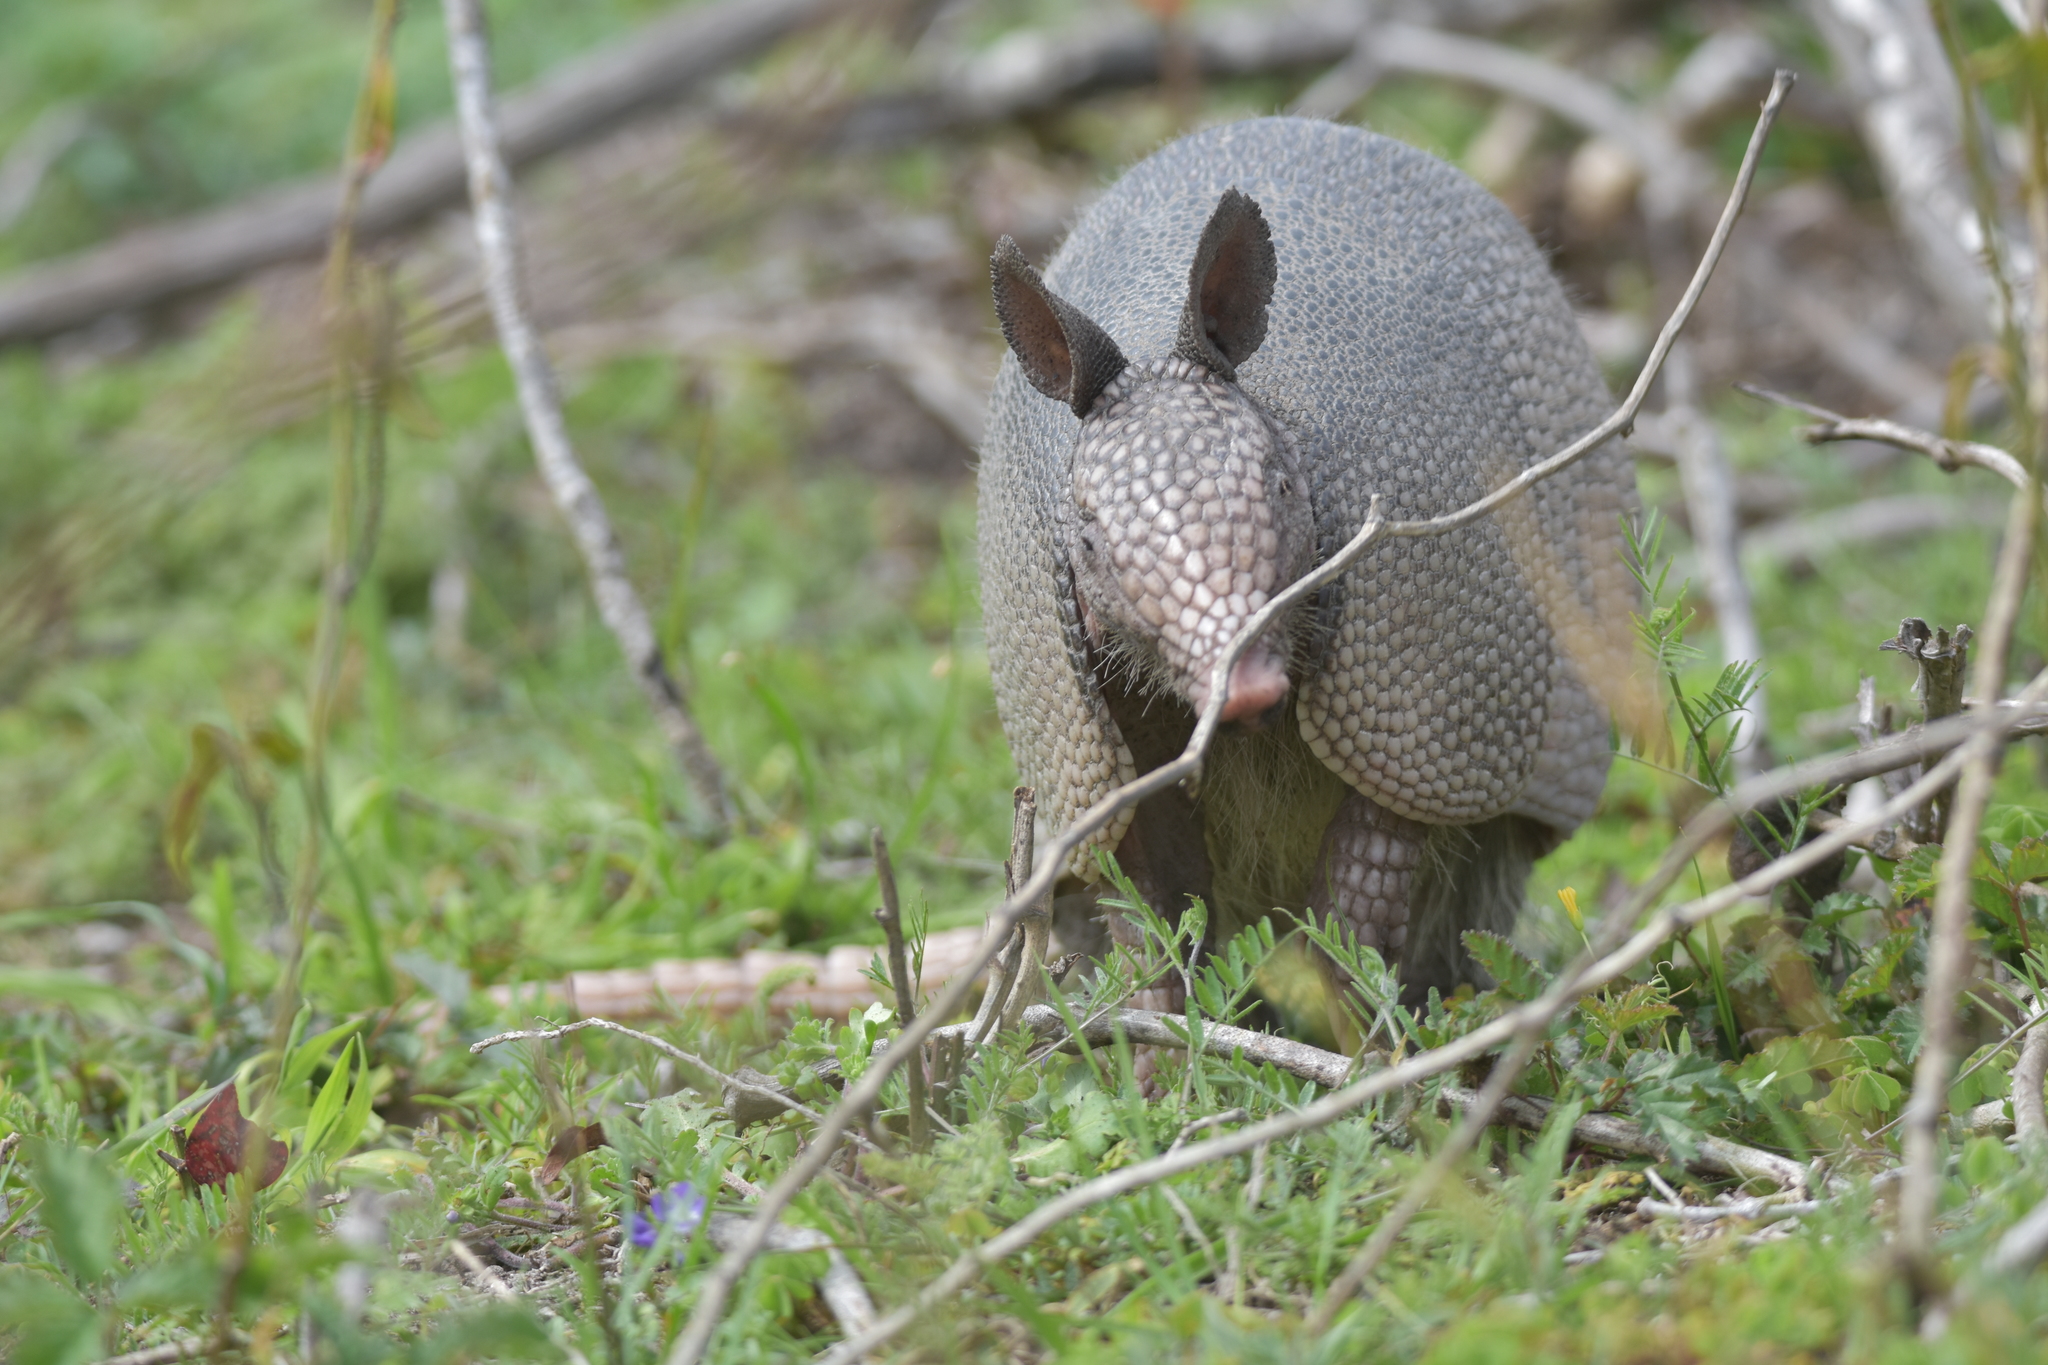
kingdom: Animalia
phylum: Chordata
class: Mammalia
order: Cingulata
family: Dasypodidae
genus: Dasypus
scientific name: Dasypus novemcinctus
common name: Nine-banded armadillo
